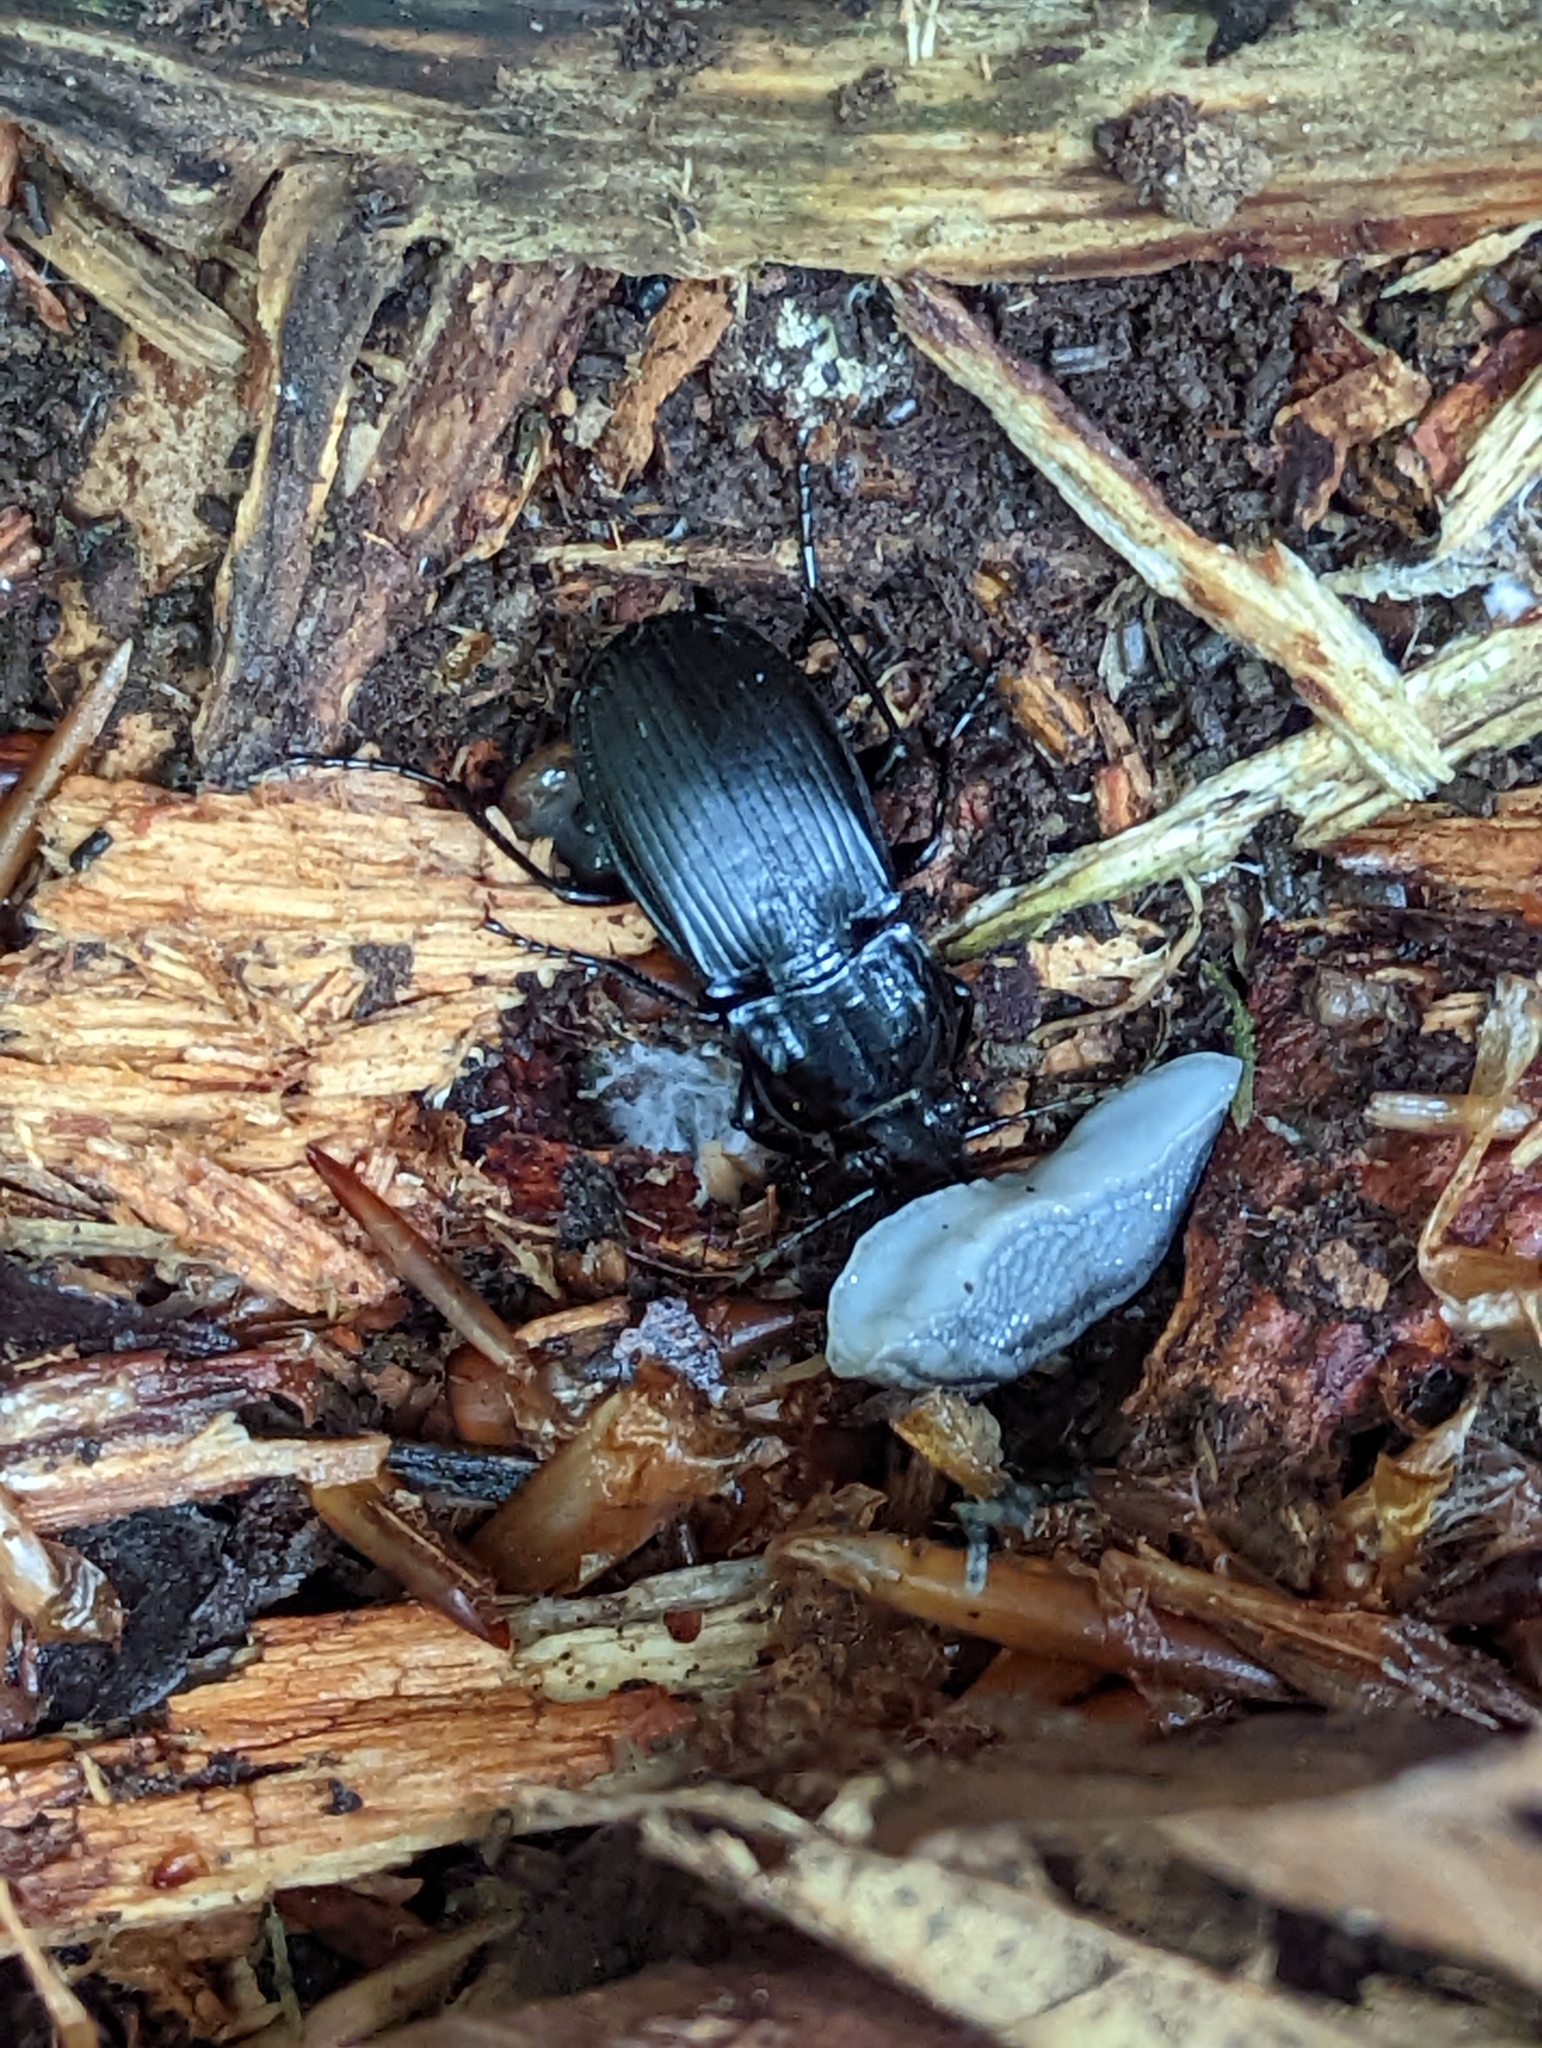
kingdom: Animalia
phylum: Arthropoda
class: Insecta
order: Coleoptera
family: Carabidae
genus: Abax
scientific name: Abax parallelepipedus
